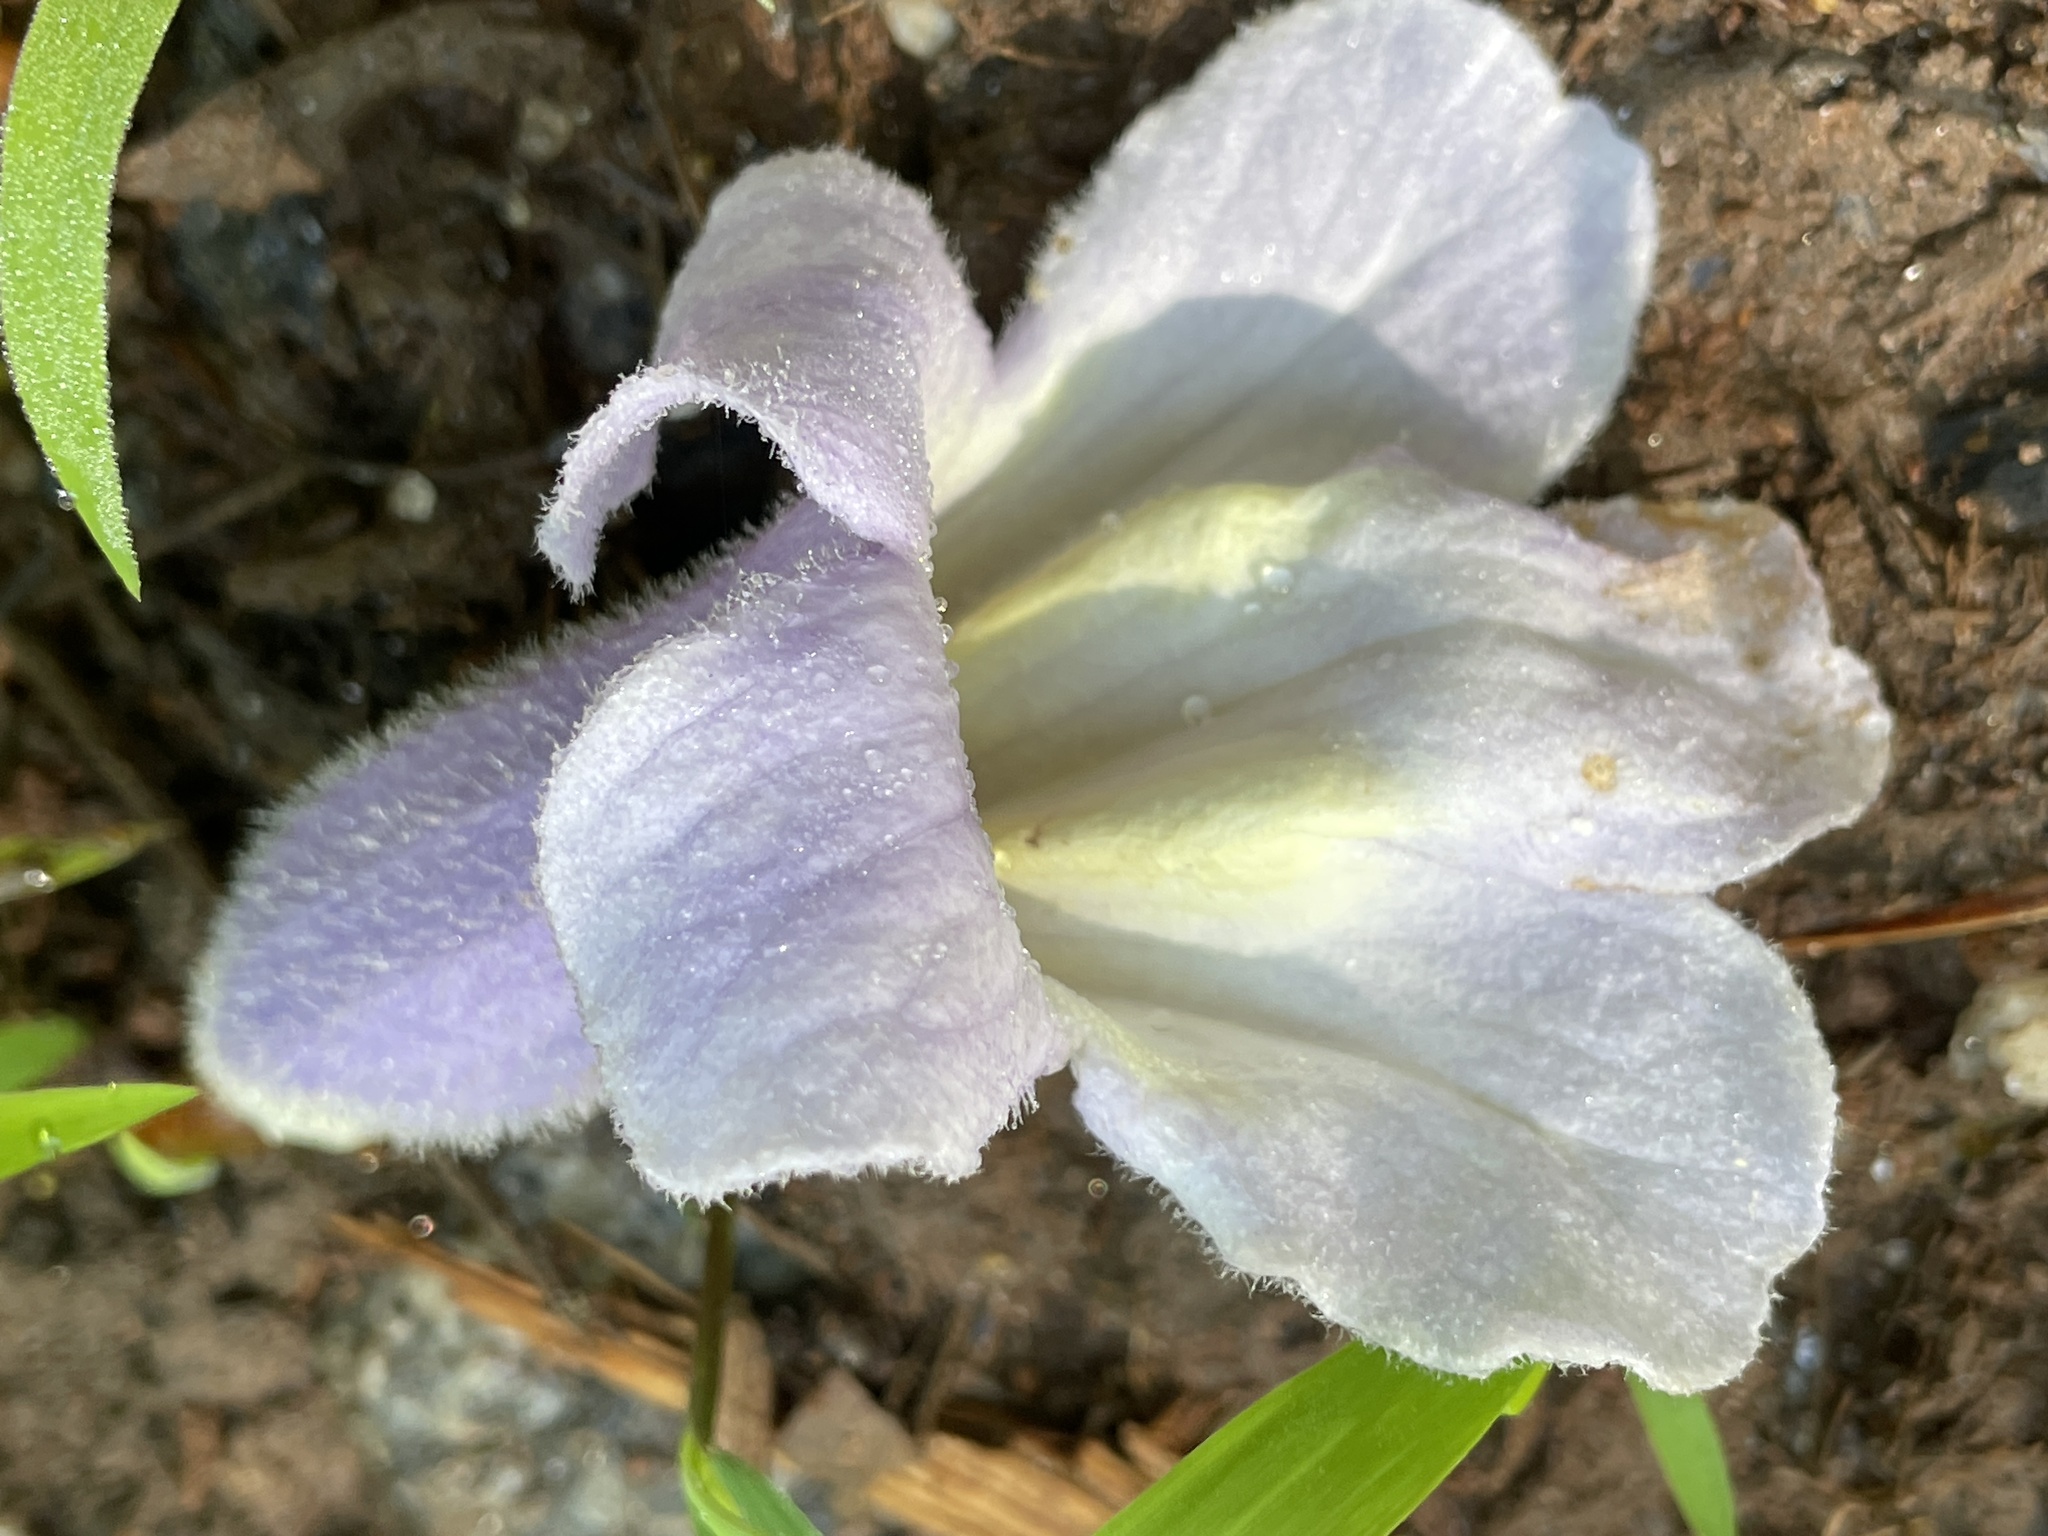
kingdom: Plantae
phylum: Tracheophyta
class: Magnoliopsida
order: Lamiales
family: Paulowniaceae
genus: Paulownia
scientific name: Paulownia tomentosa
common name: Foxglove-tree
